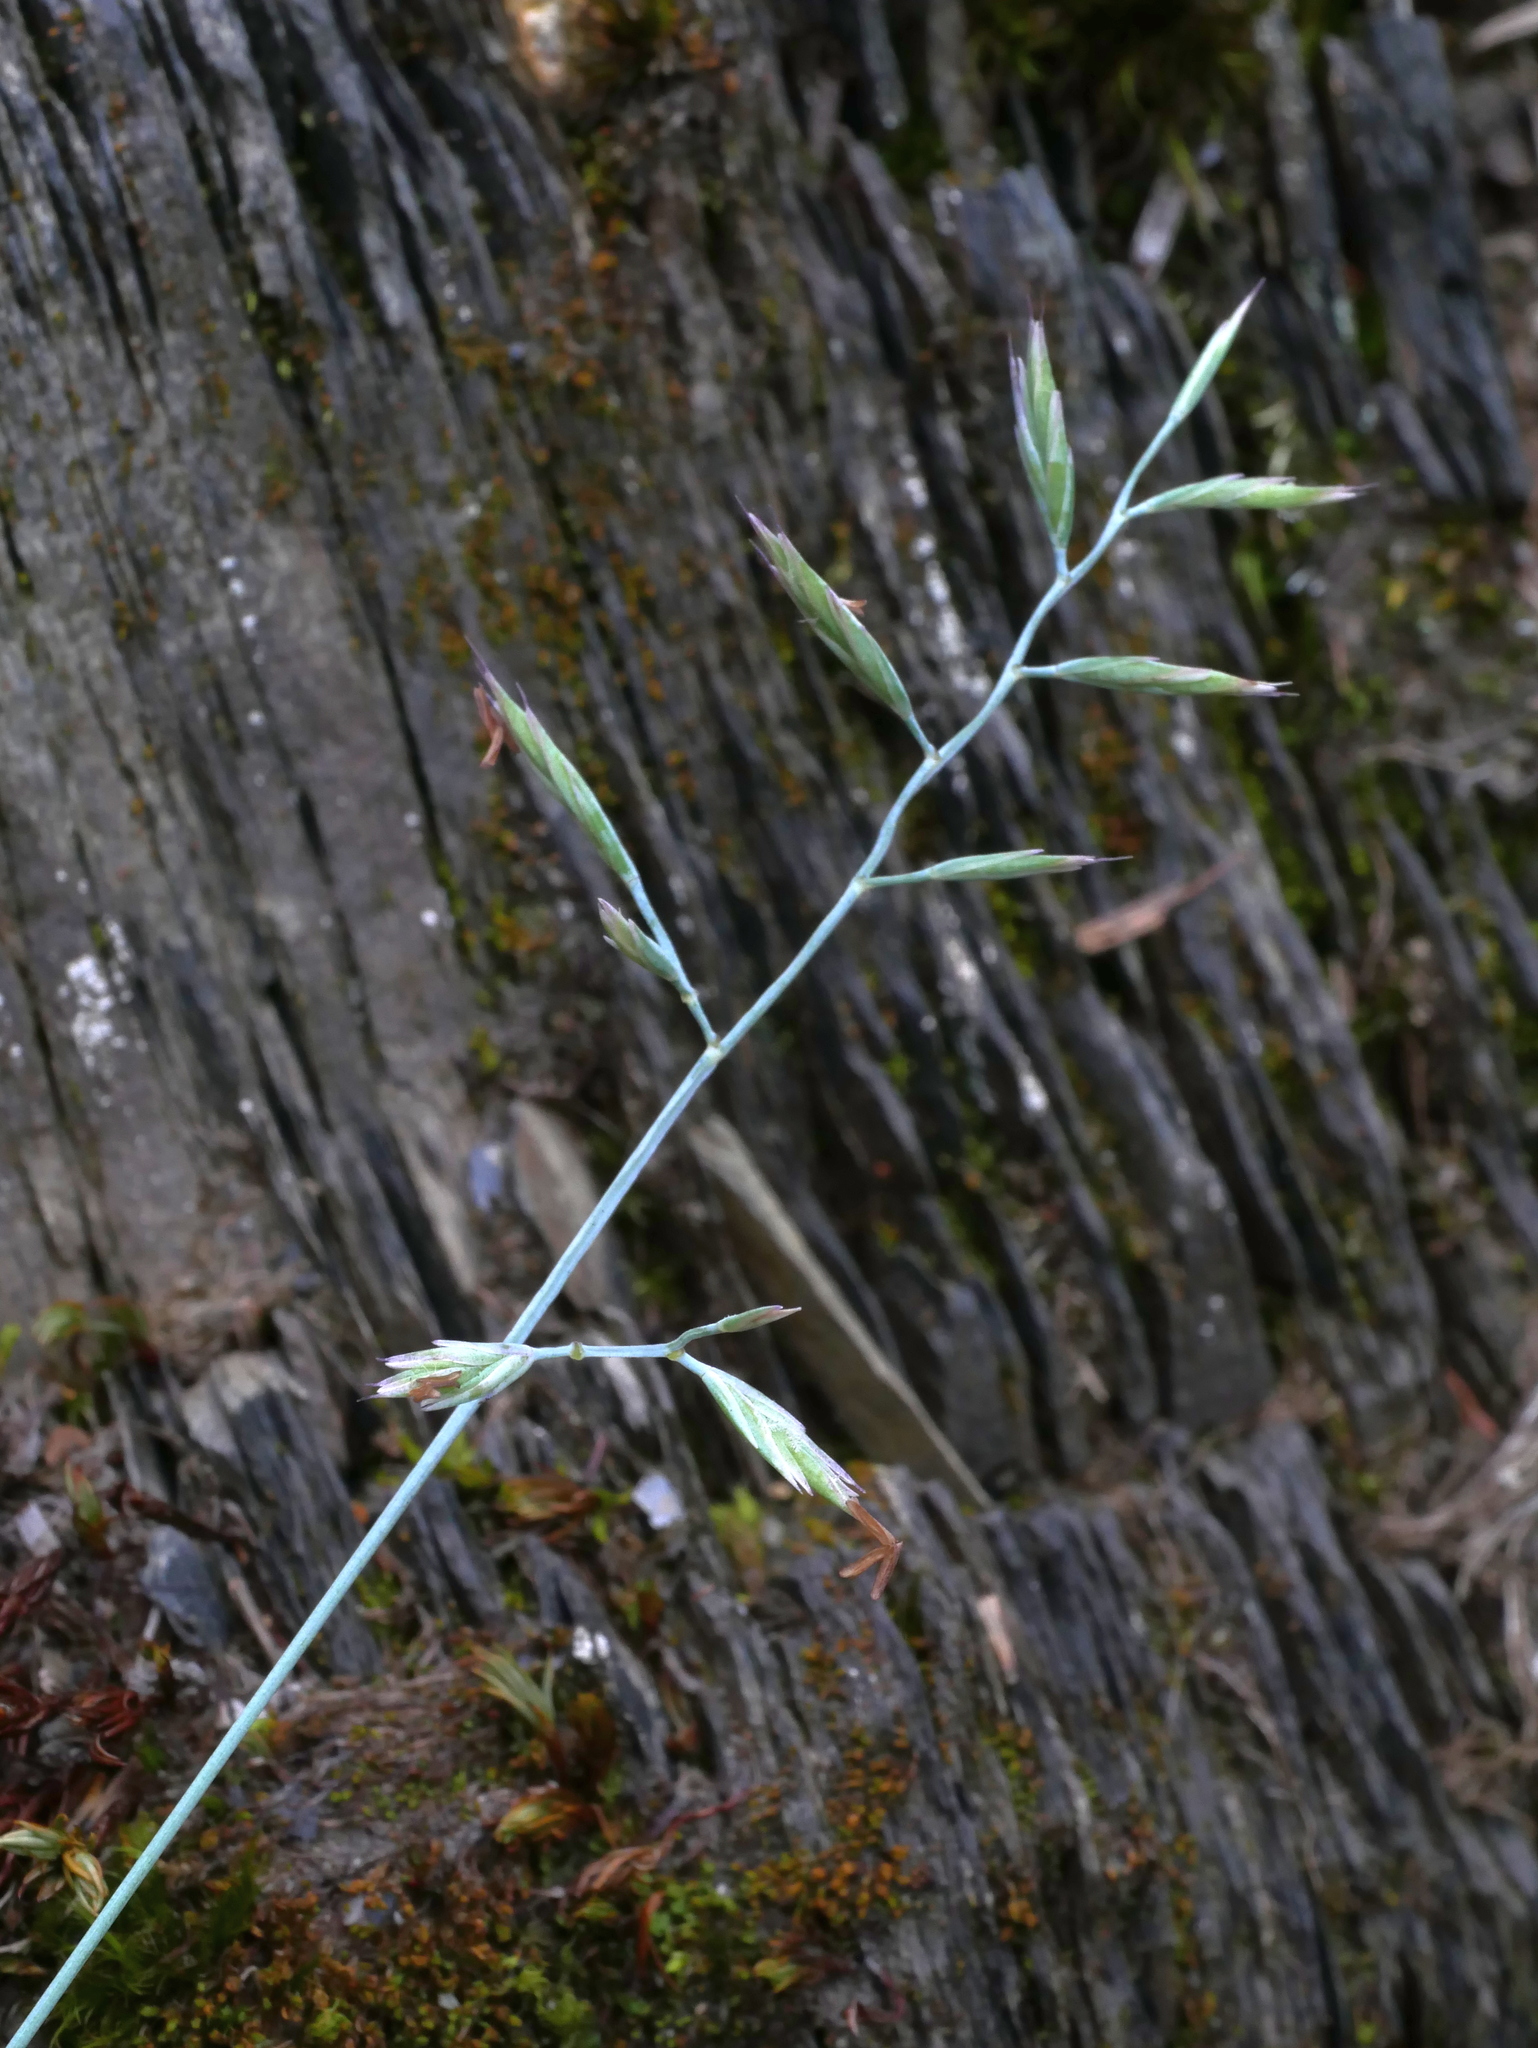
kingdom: Plantae
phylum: Tracheophyta
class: Liliopsida
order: Poales
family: Poaceae
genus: Festuca
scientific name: Festuca ovina
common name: Sheep fescue
